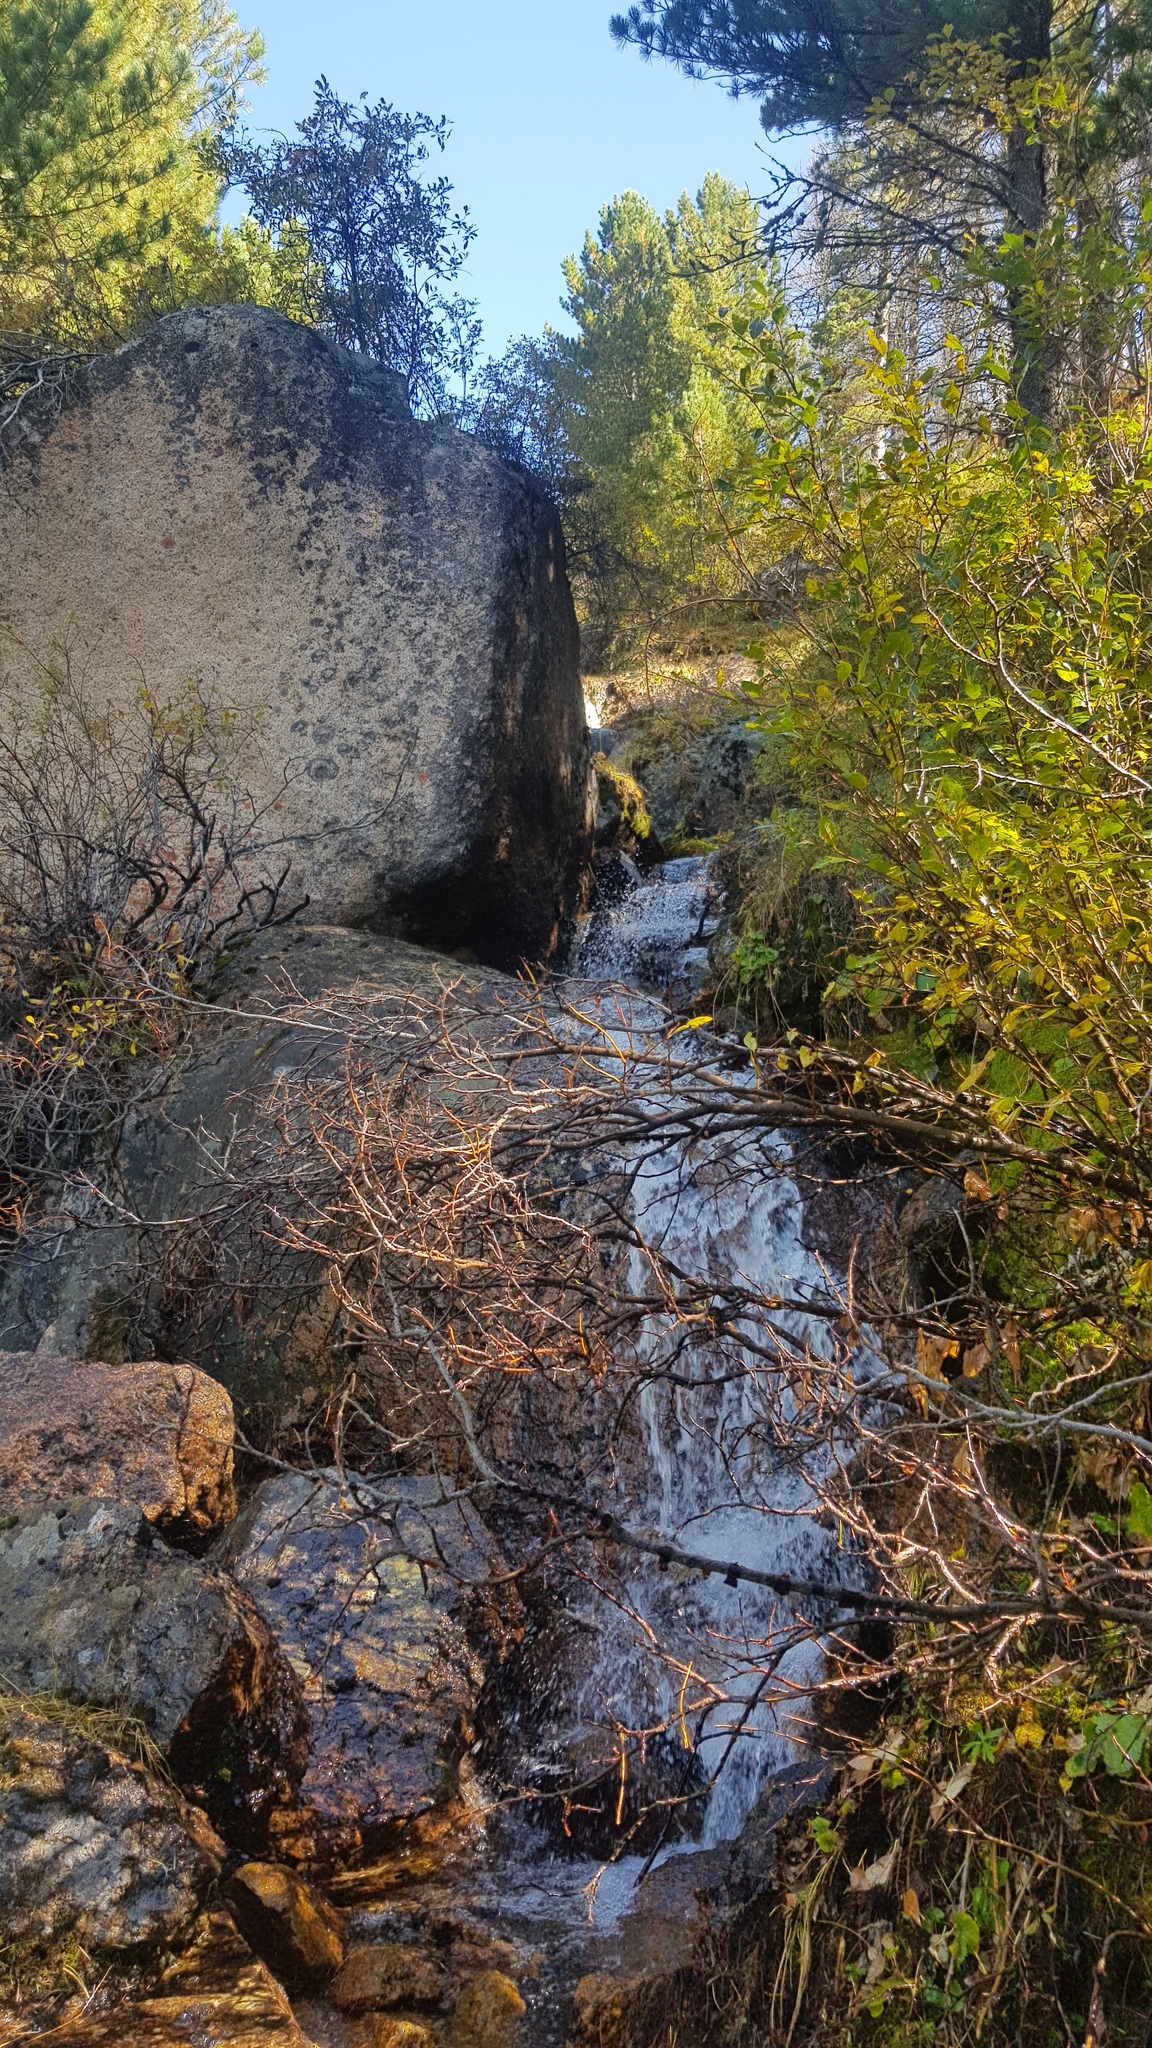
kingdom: Plantae
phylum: Tracheophyta
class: Pinopsida
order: Pinales
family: Pinaceae
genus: Pinus
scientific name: Pinus sibirica
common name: Siberian pine
